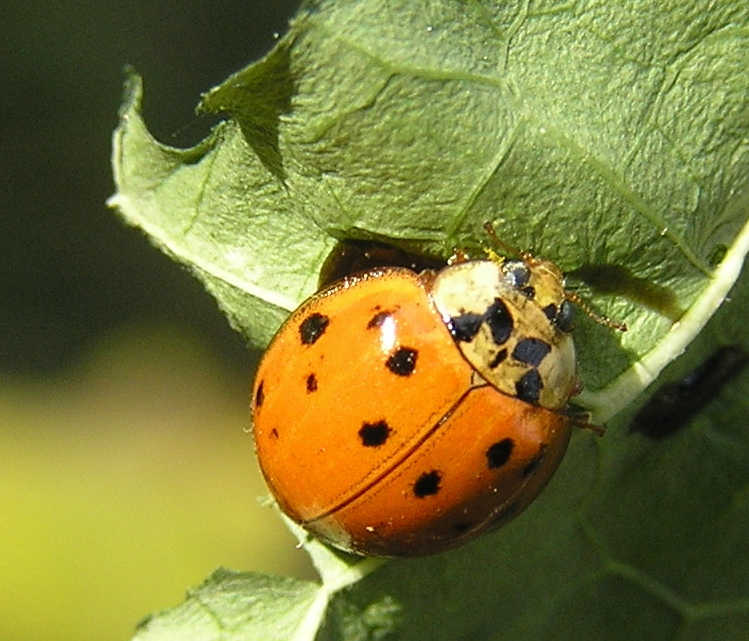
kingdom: Animalia
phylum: Arthropoda
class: Insecta
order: Coleoptera
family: Coccinellidae
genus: Harmonia
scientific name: Harmonia axyridis
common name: Harlequin ladybird
